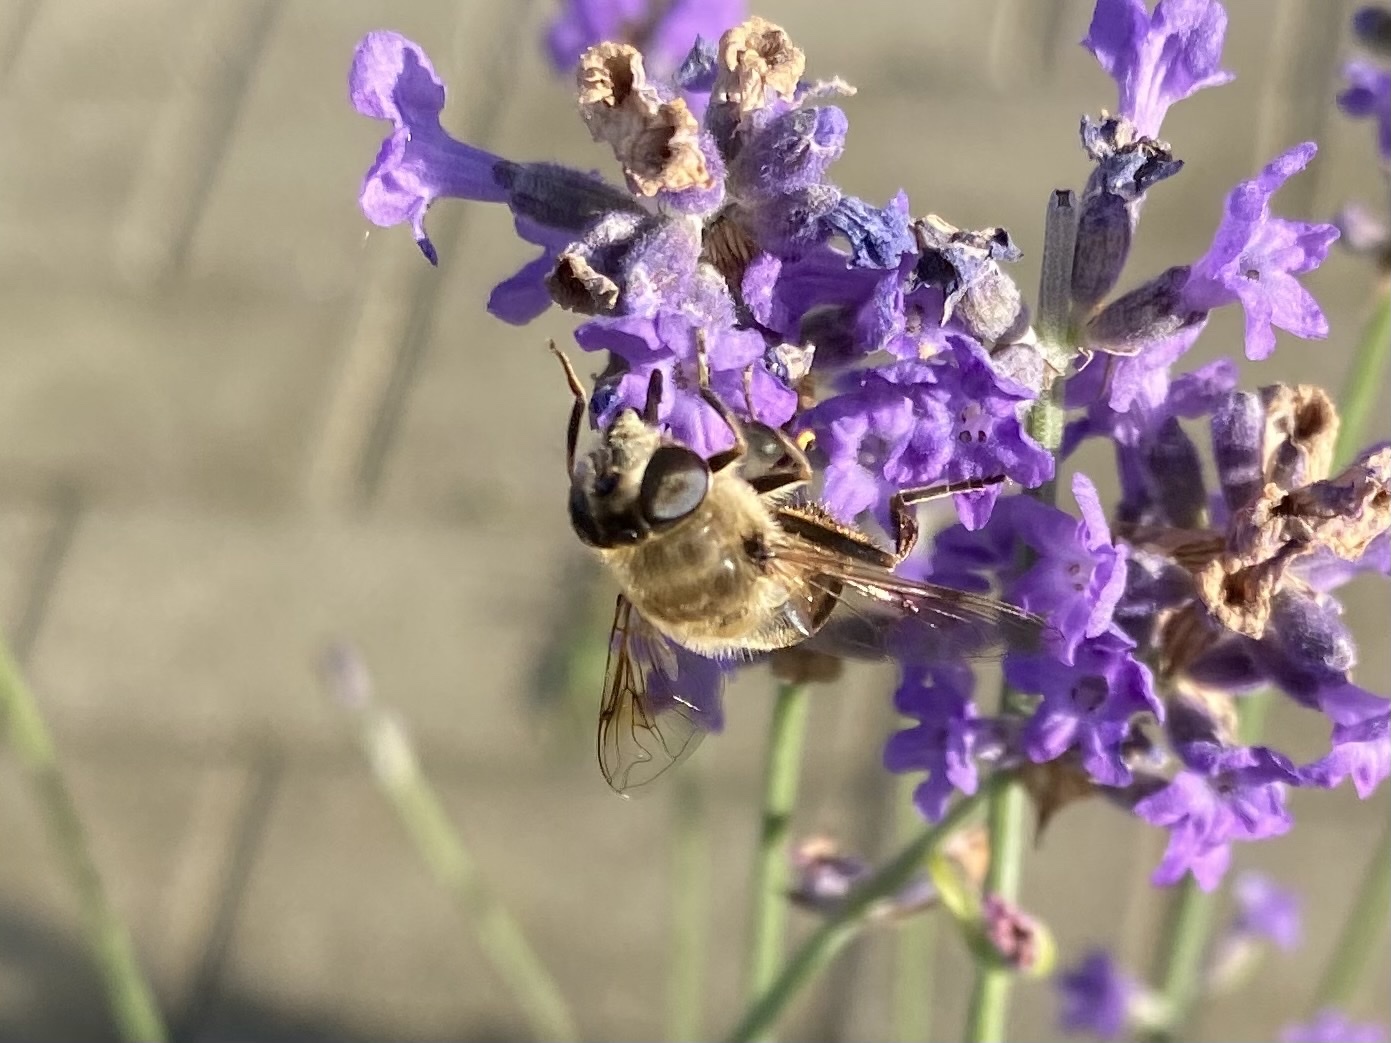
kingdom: Animalia
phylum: Arthropoda
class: Insecta
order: Diptera
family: Syrphidae
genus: Eristalis
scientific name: Eristalis tenax
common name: Drone fly
